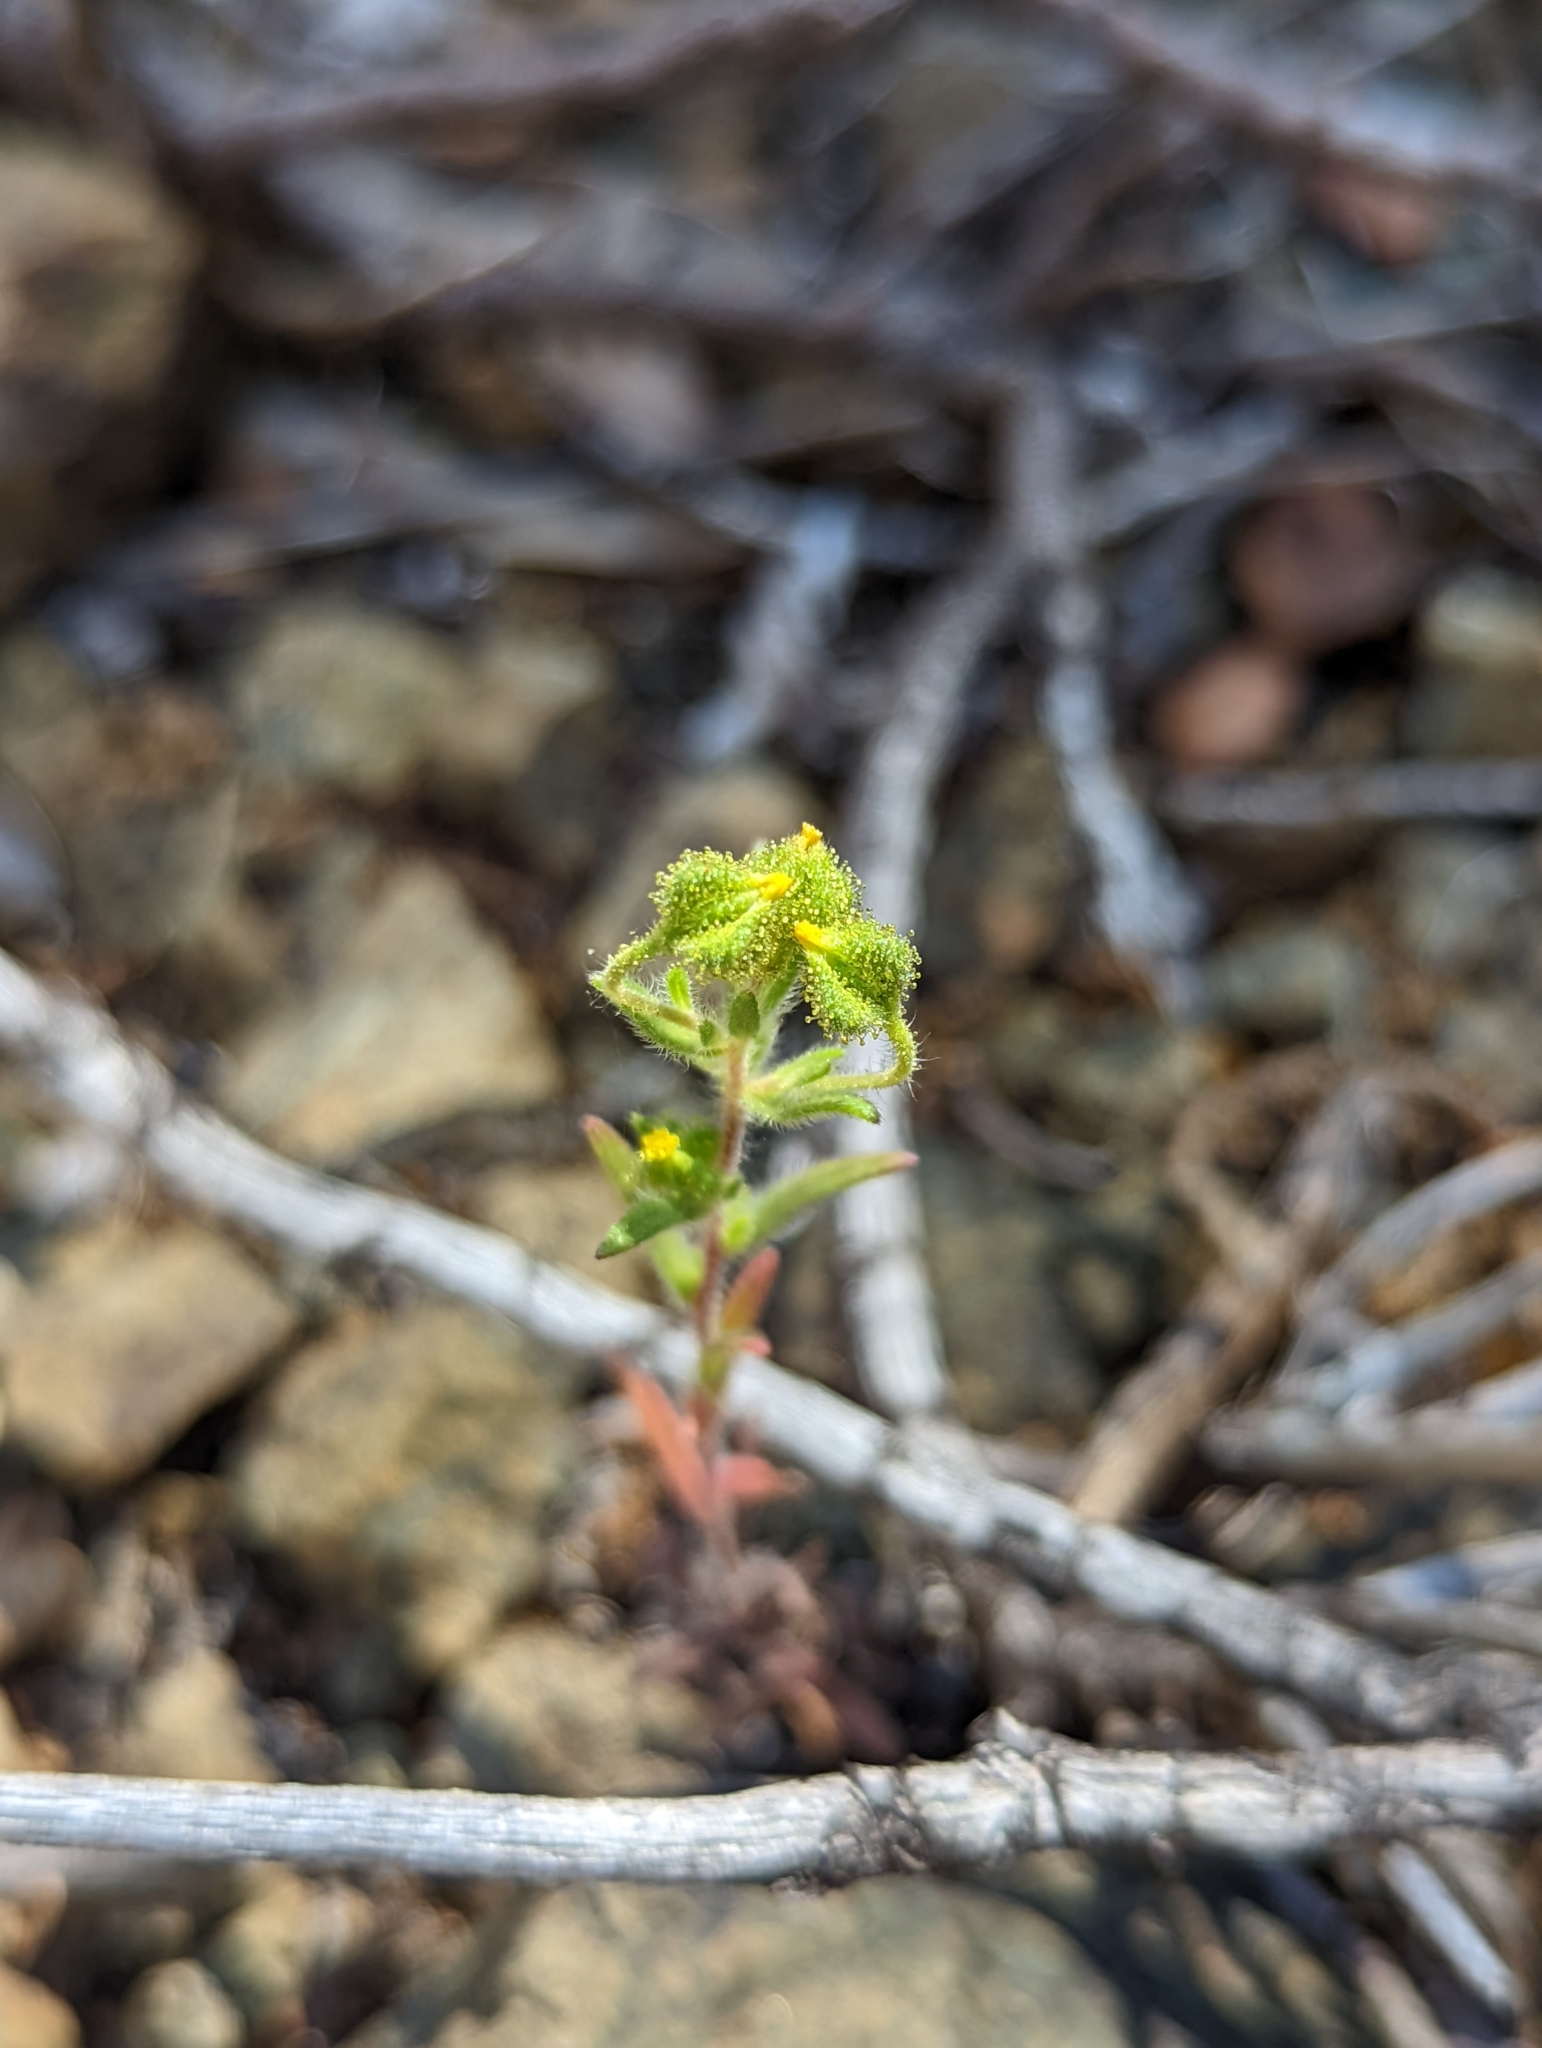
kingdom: Plantae
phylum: Tracheophyta
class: Magnoliopsida
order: Asterales
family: Asteraceae
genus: Madia
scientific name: Madia exigua
